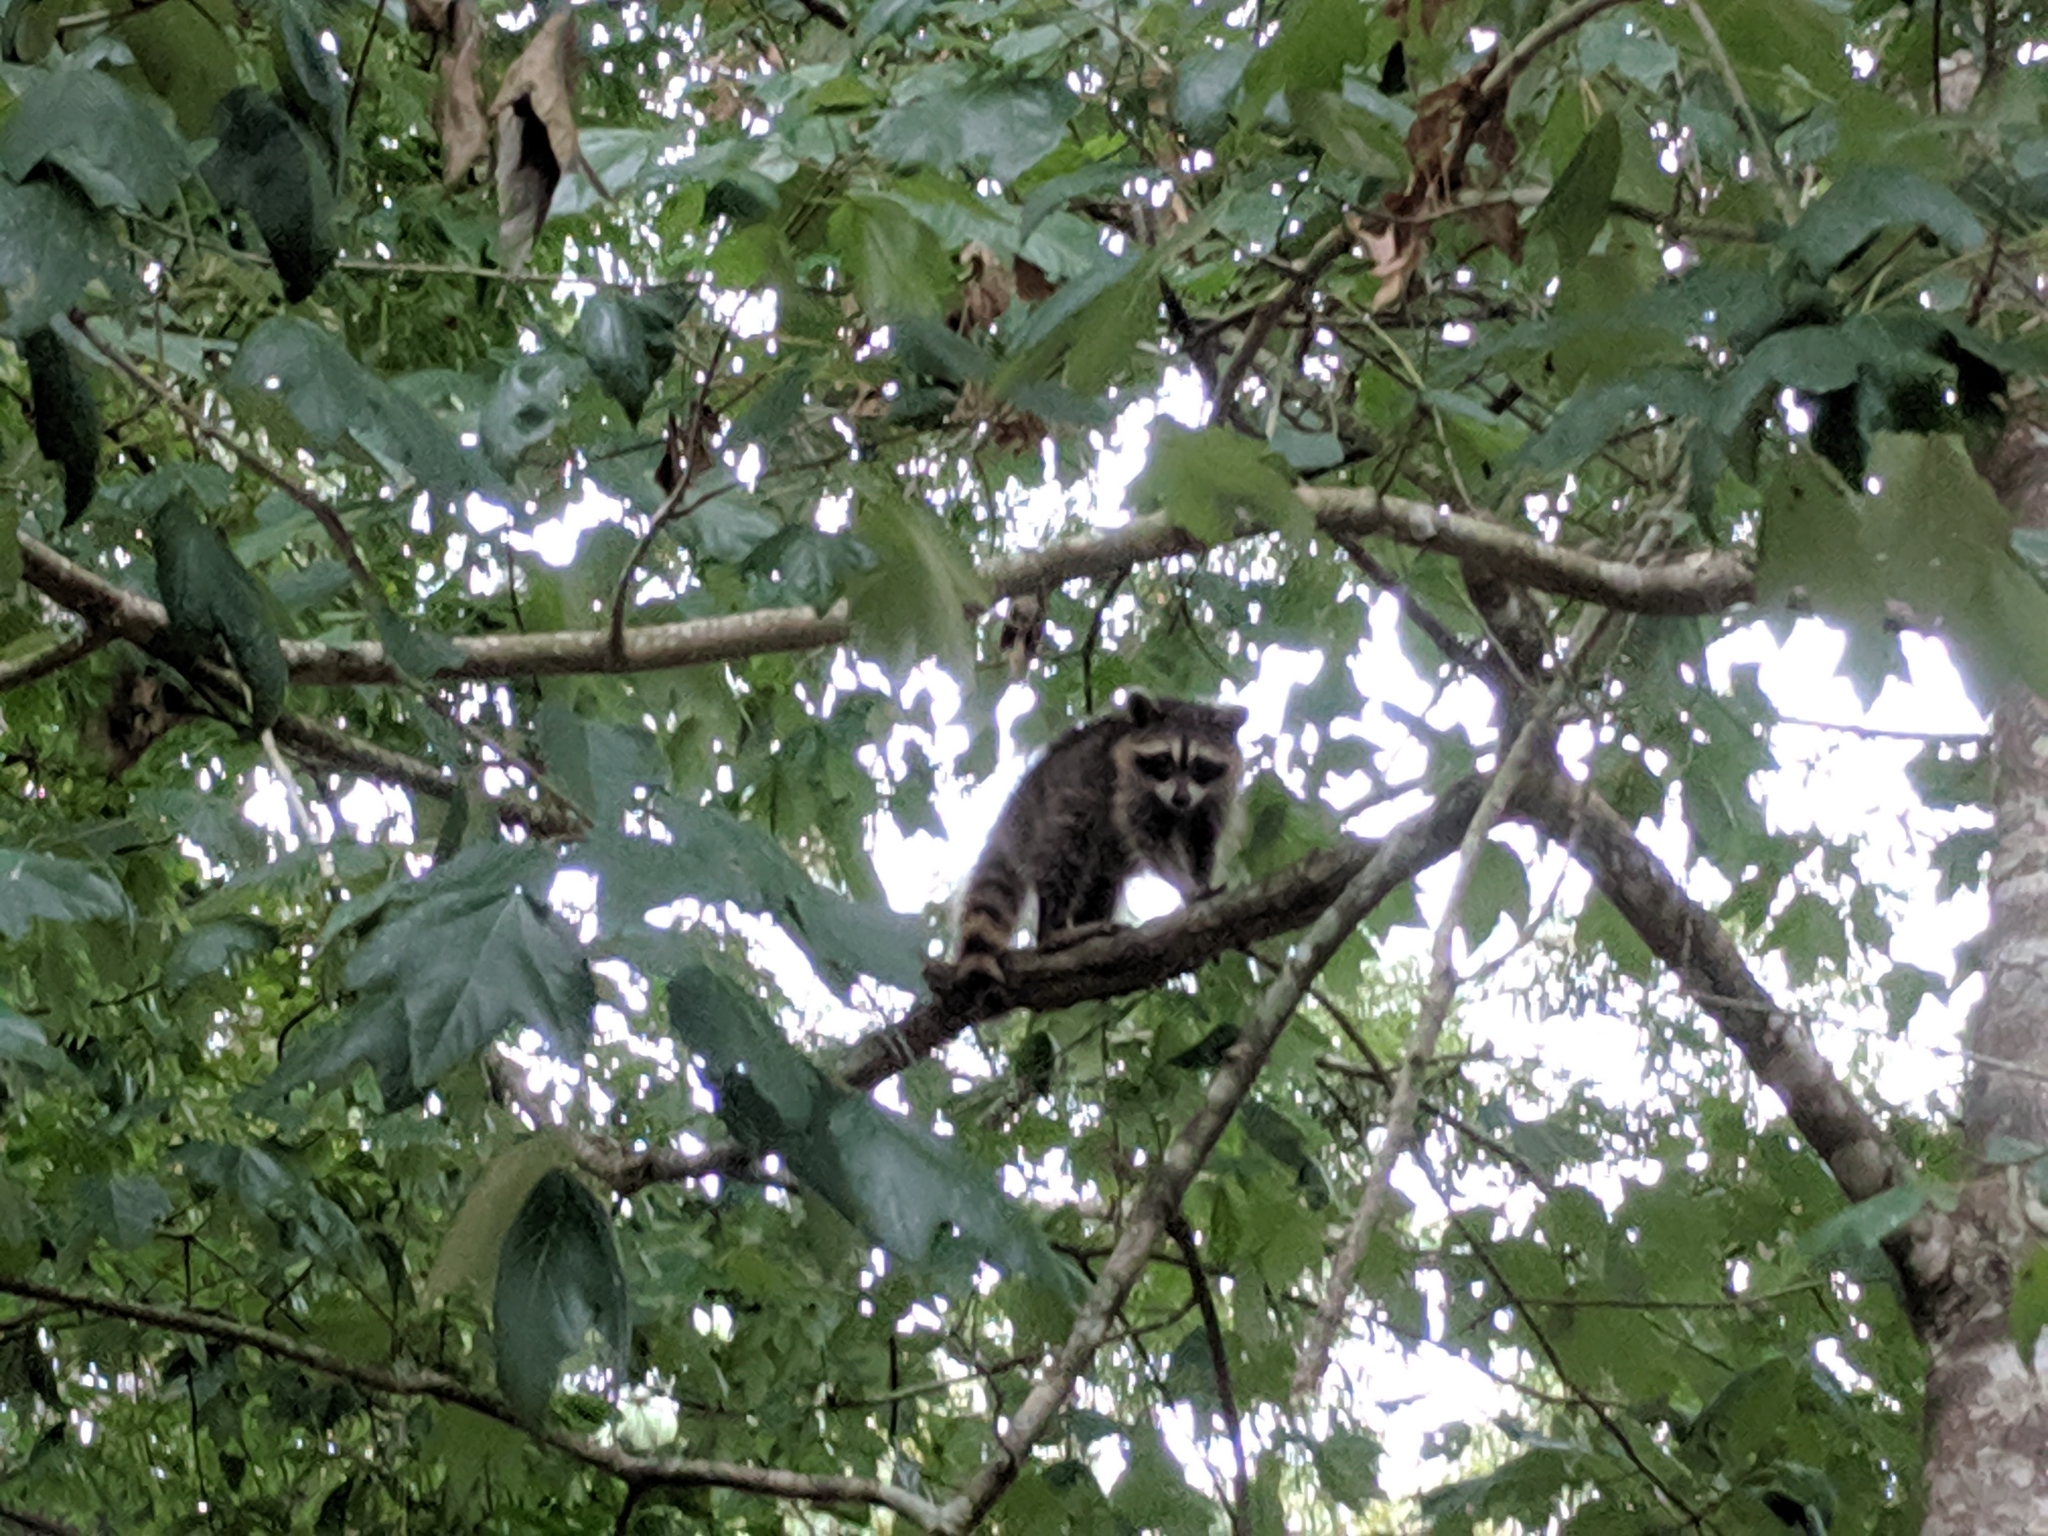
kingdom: Animalia
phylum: Chordata
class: Mammalia
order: Carnivora
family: Procyonidae
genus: Procyon
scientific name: Procyon lotor
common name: Raccoon
